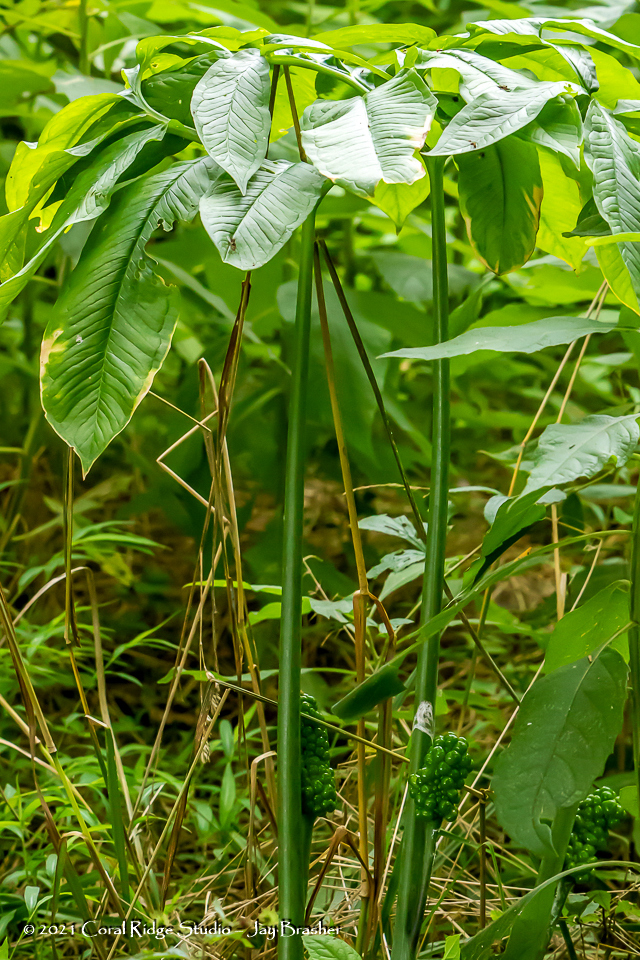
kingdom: Plantae
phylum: Tracheophyta
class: Liliopsida
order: Alismatales
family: Araceae
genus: Arisaema
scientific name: Arisaema dracontium
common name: Dragon-arum
